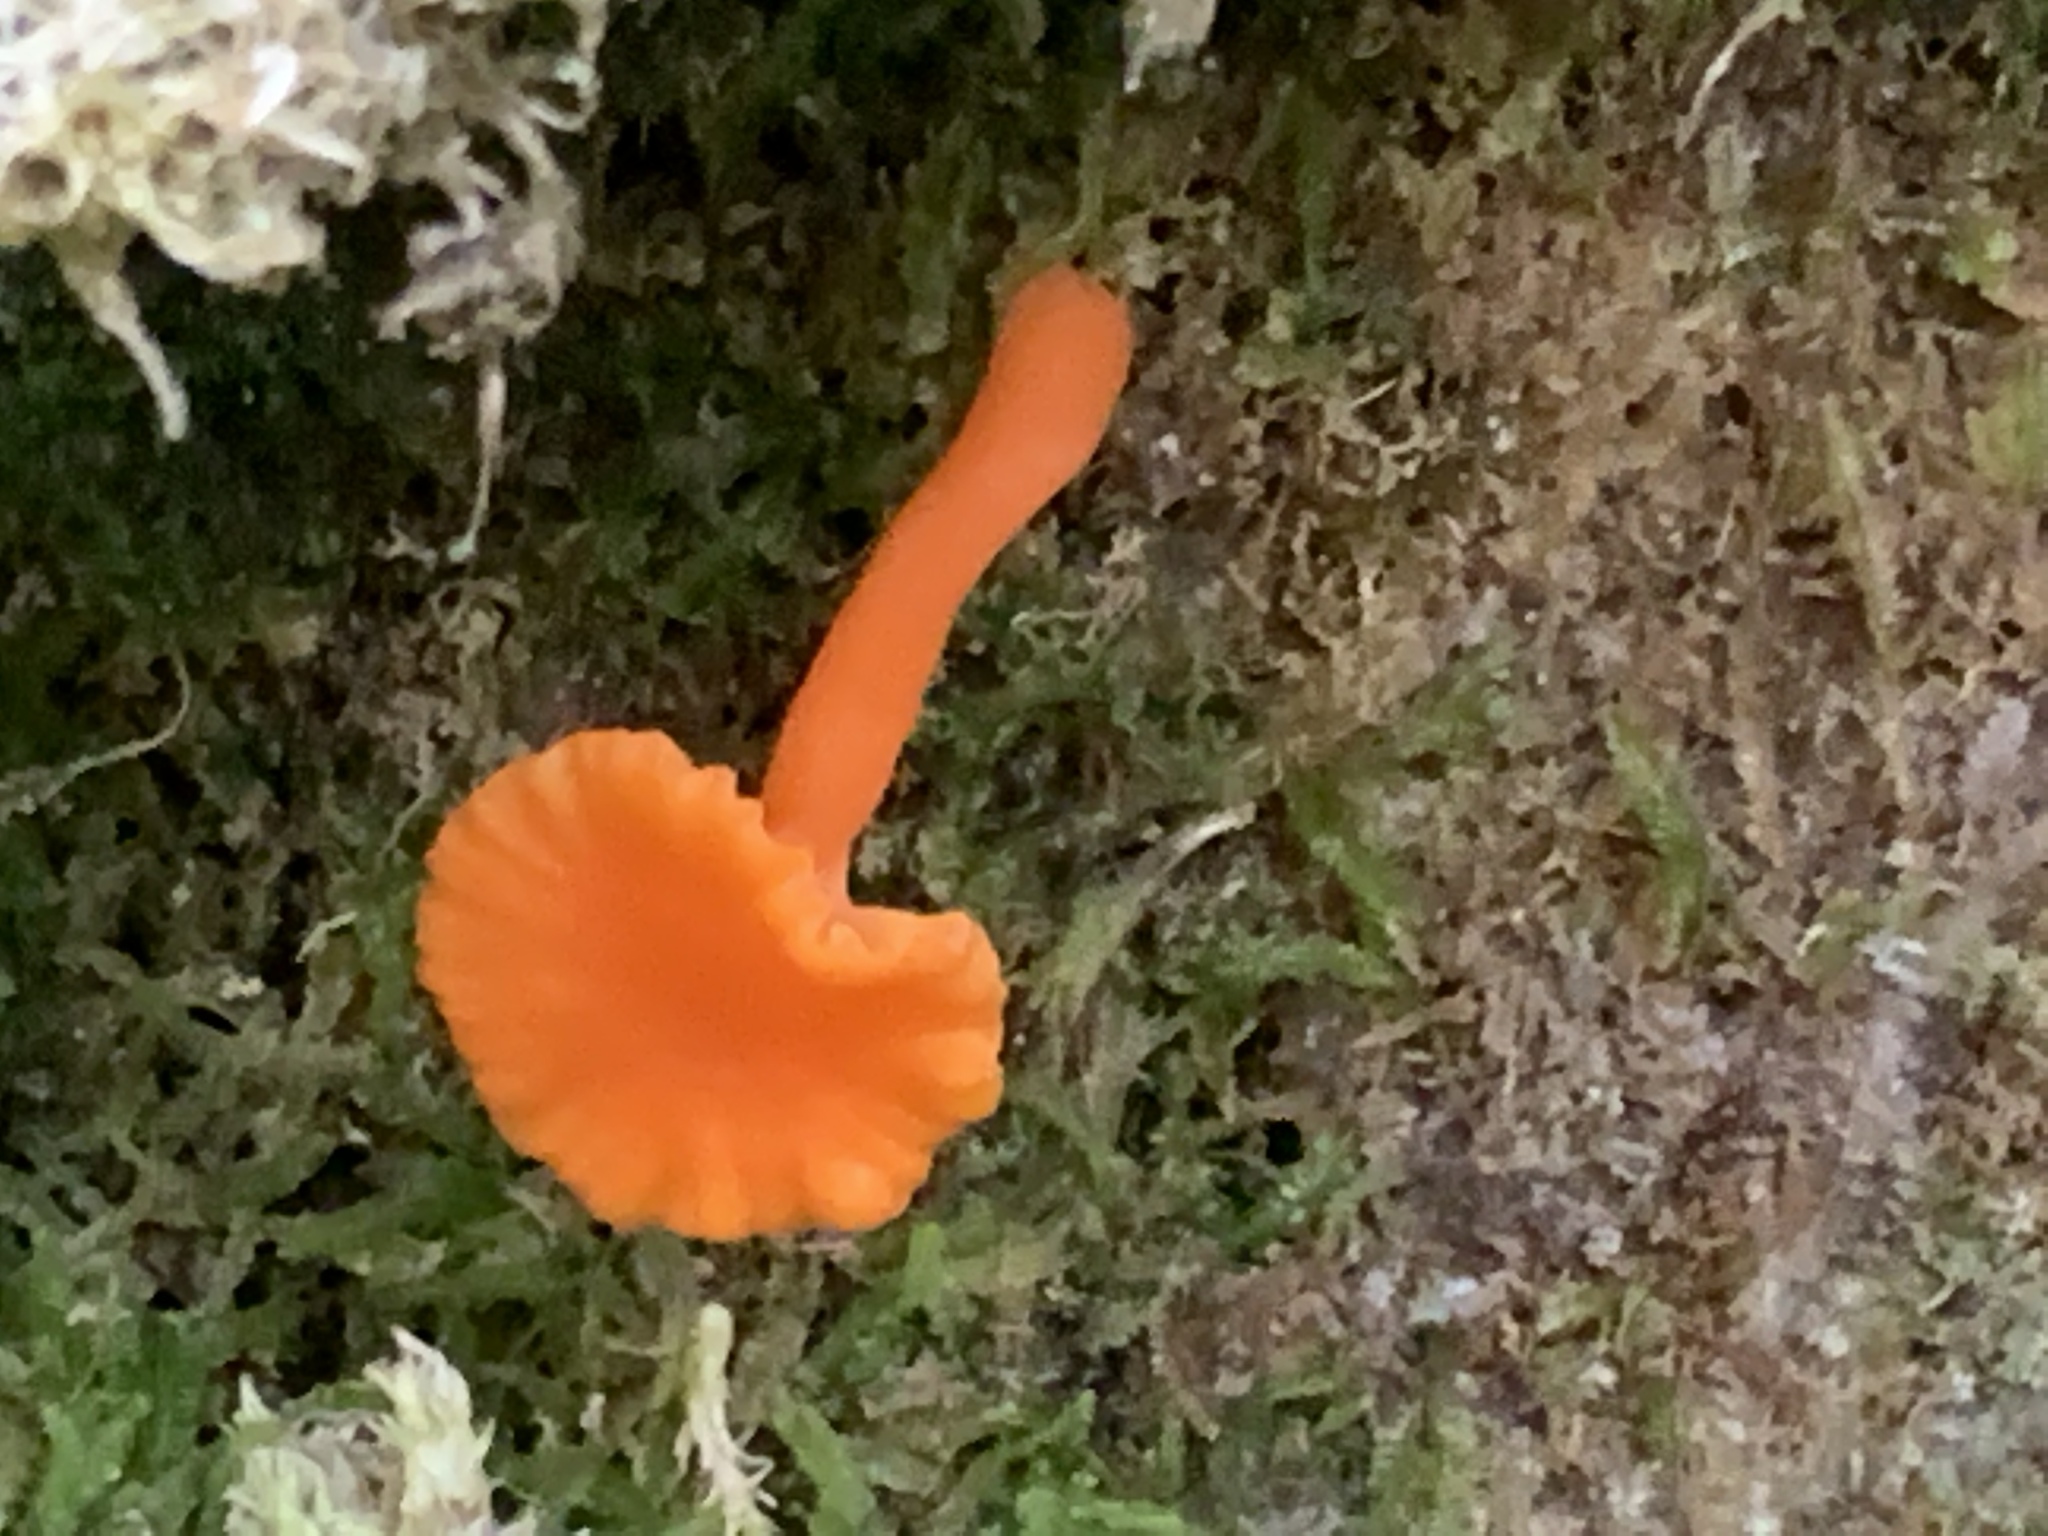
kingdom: Fungi
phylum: Basidiomycota
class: Agaricomycetes
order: Cantharellales
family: Hydnaceae
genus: Cantharellus
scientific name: Cantharellus cinnabarinus
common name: Cinnabar chanterelle
